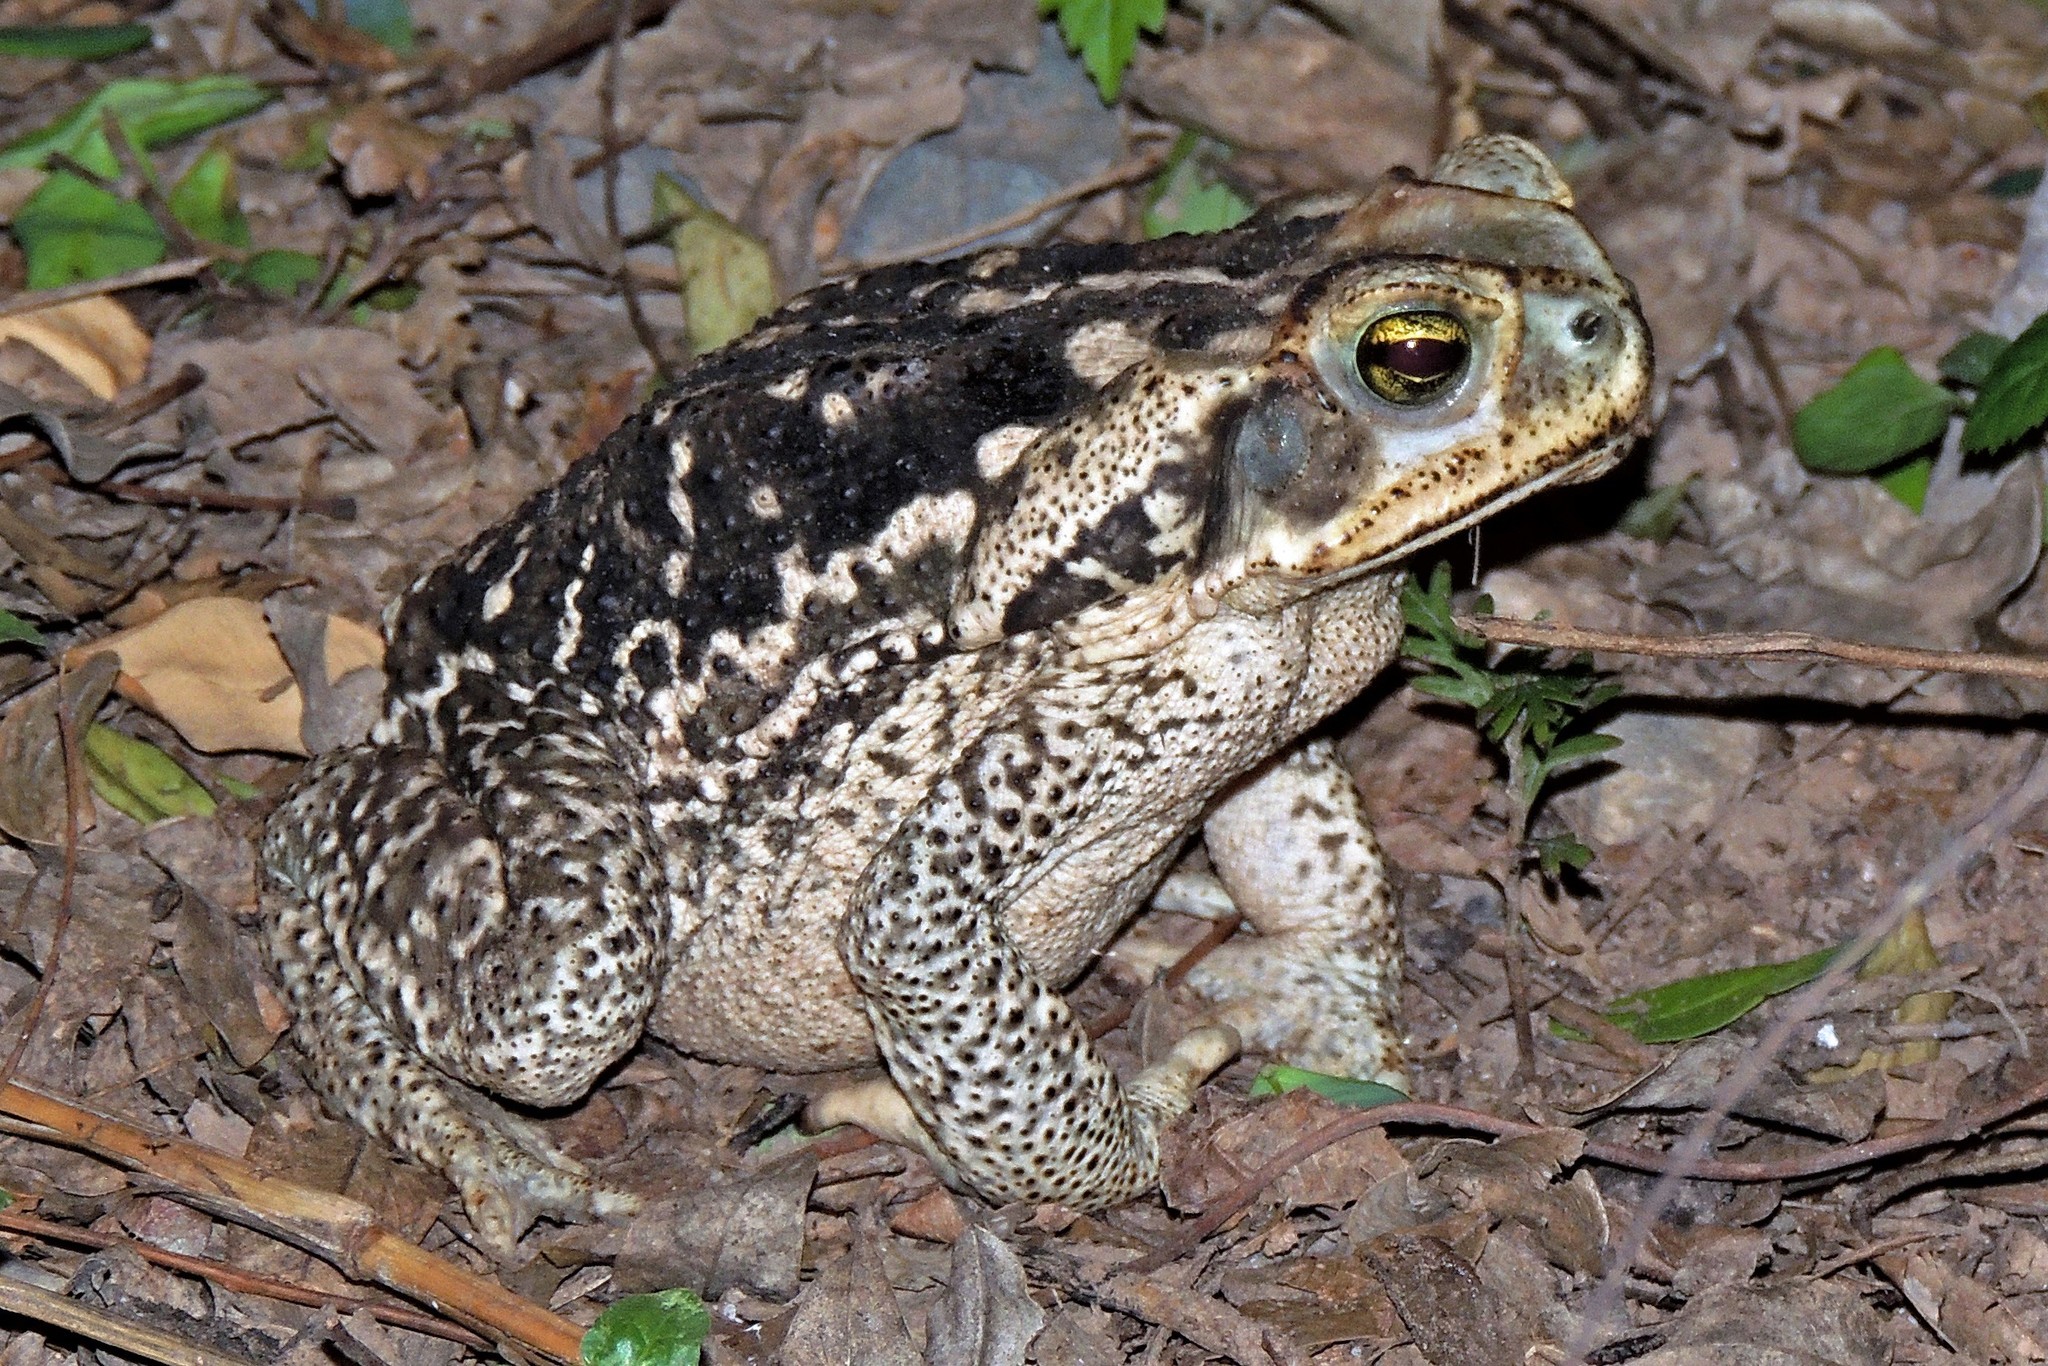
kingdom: Animalia
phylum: Chordata
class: Amphibia
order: Anura
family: Bufonidae
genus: Rhinella
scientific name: Rhinella diptycha
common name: Cope's toad
